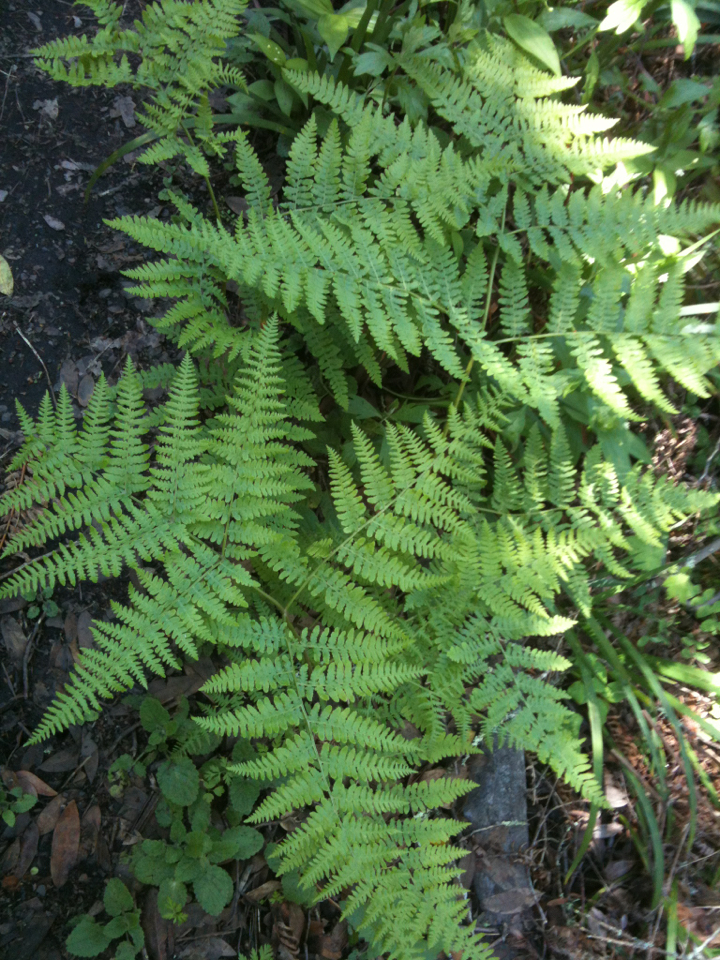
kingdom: Plantae
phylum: Tracheophyta
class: Polypodiopsida
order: Polypodiales
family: Dennstaedtiaceae
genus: Pteridium
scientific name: Pteridium aquilinum
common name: Bracken
